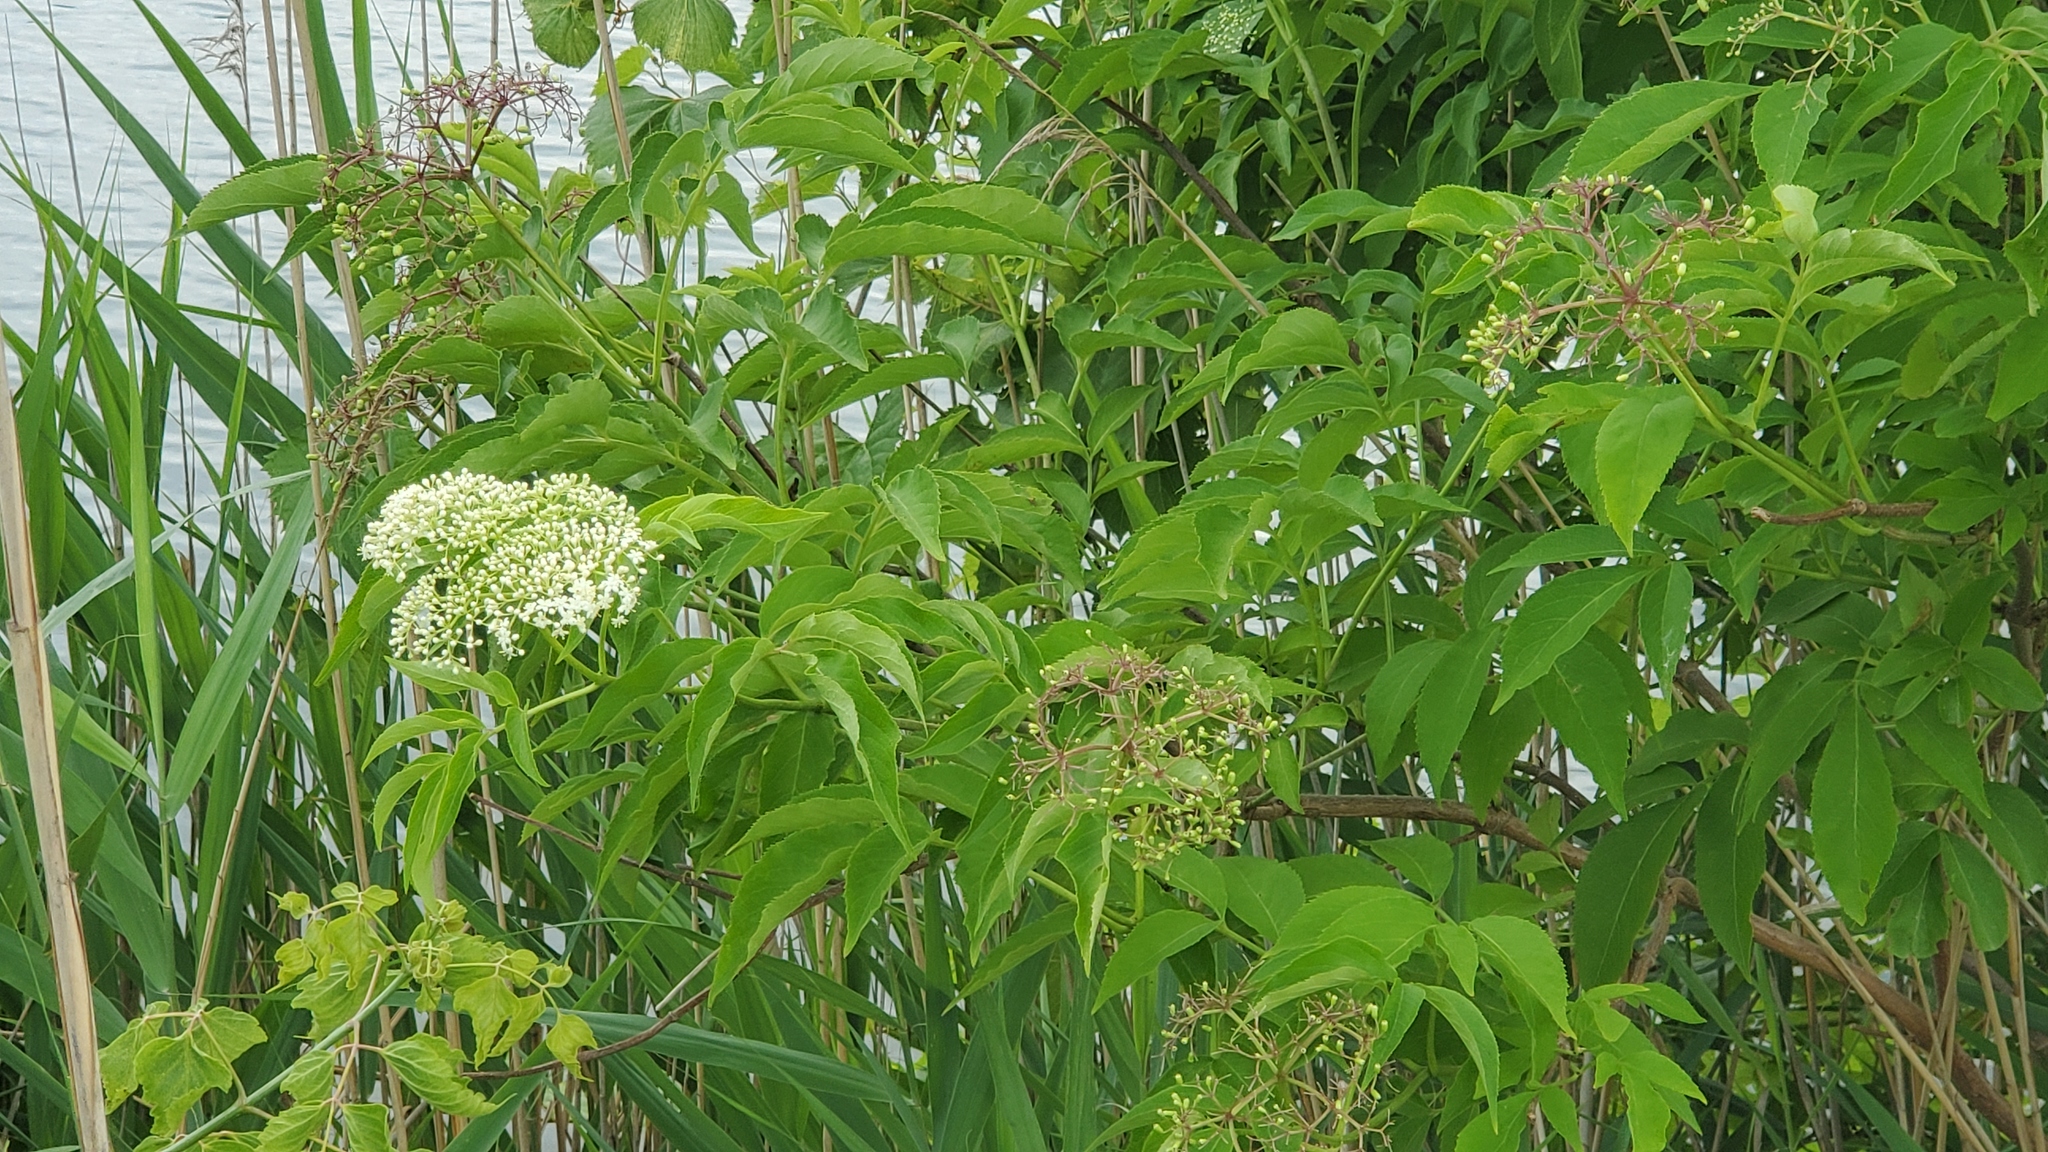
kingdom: Plantae
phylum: Tracheophyta
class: Magnoliopsida
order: Dipsacales
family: Viburnaceae
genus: Sambucus
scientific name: Sambucus canadensis
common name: American elder
